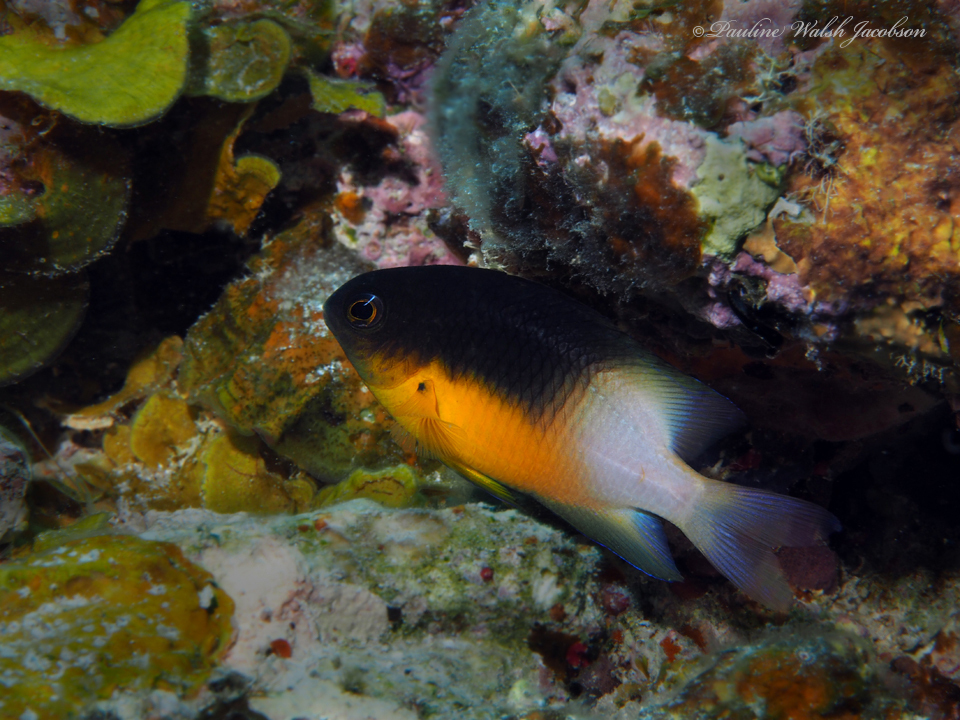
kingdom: Animalia
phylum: Chordata
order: Perciformes
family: Pomacentridae
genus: Stegastes
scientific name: Stegastes partitus
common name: Bicolor damselfish
